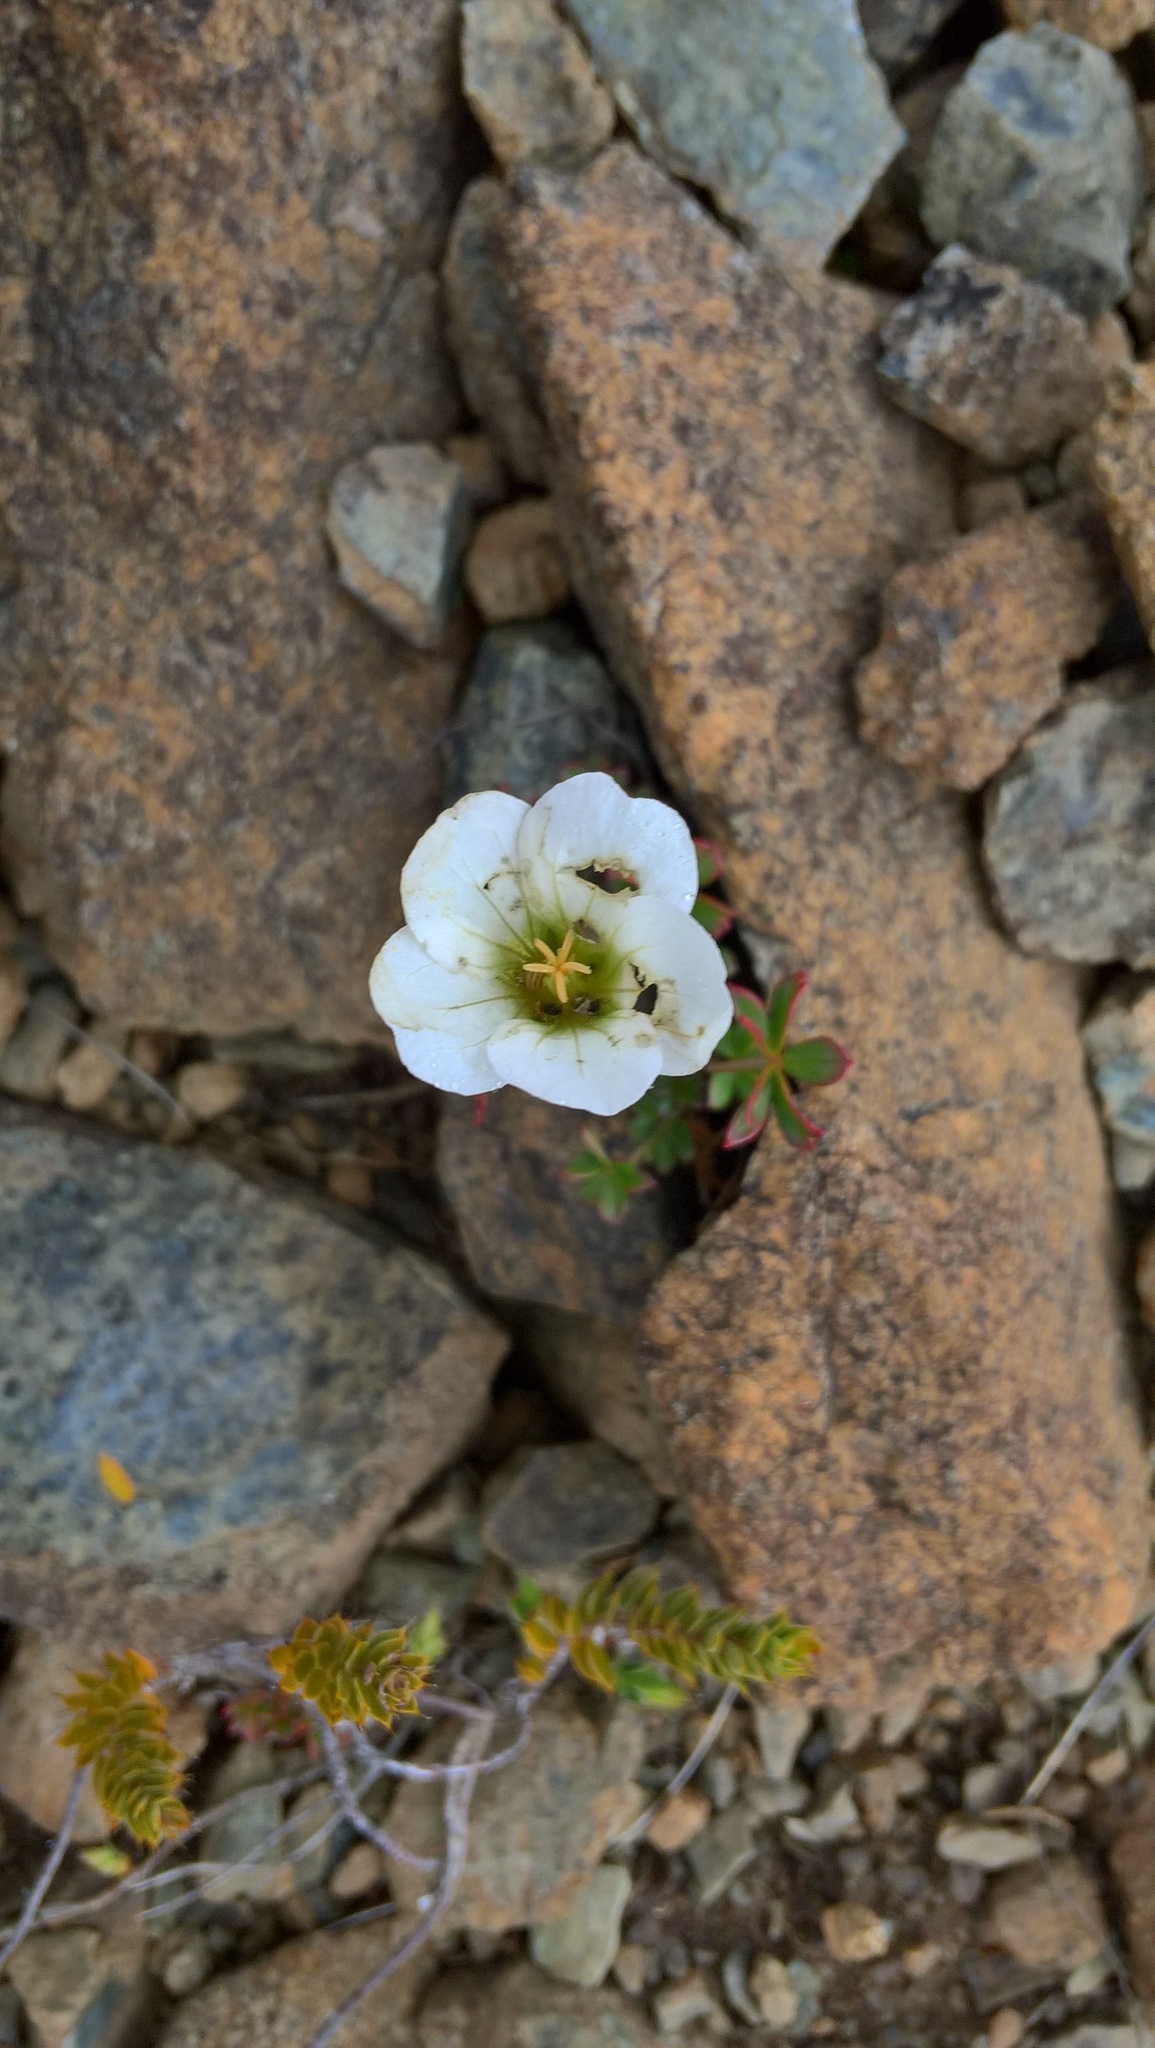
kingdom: Plantae
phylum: Tracheophyta
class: Magnoliopsida
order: Geraniales
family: Geraniaceae
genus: Geranium
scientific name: Geranium rubricum
